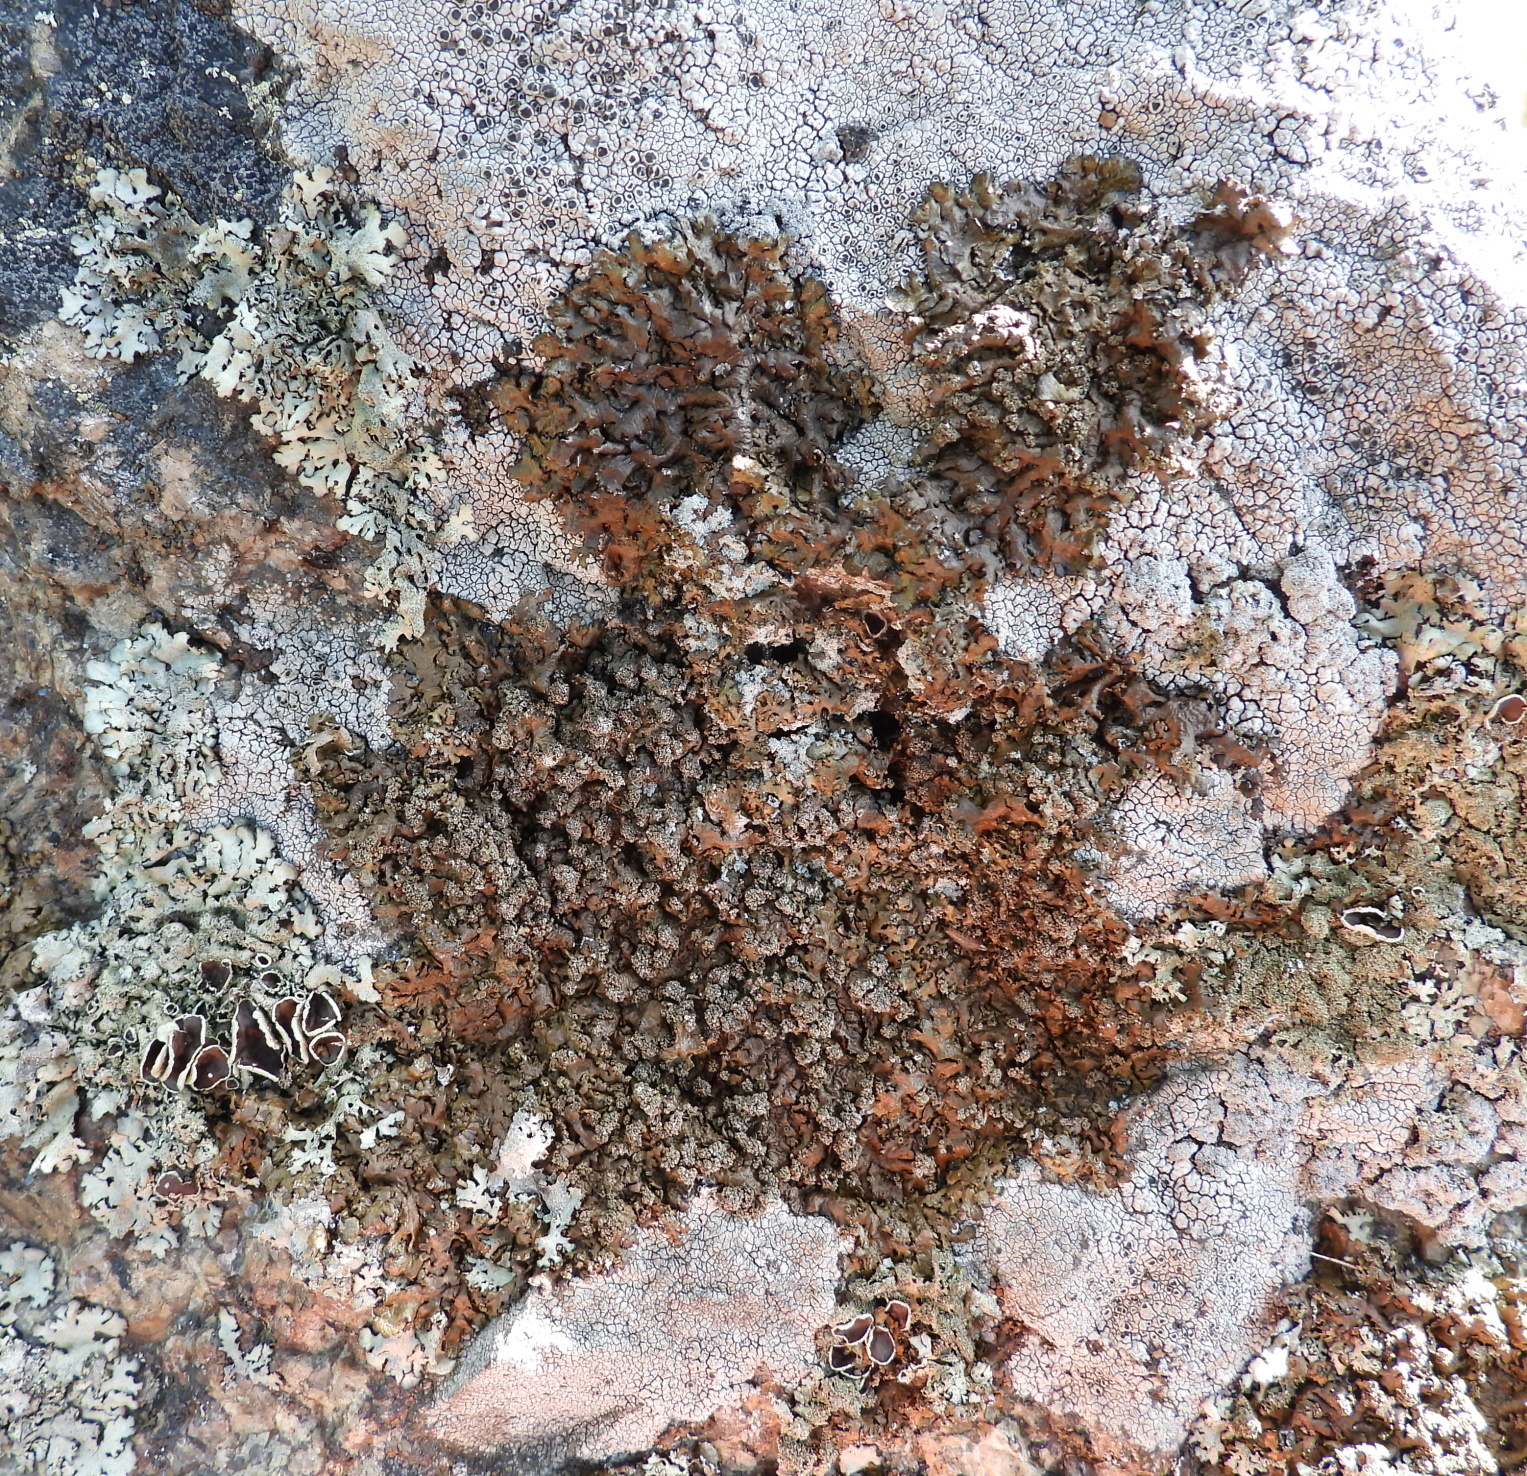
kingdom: Fungi
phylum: Ascomycota
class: Lecanoromycetes
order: Lecanorales
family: Parmeliaceae
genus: Xanthoparmelia
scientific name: Xanthoparmelia loxodes
